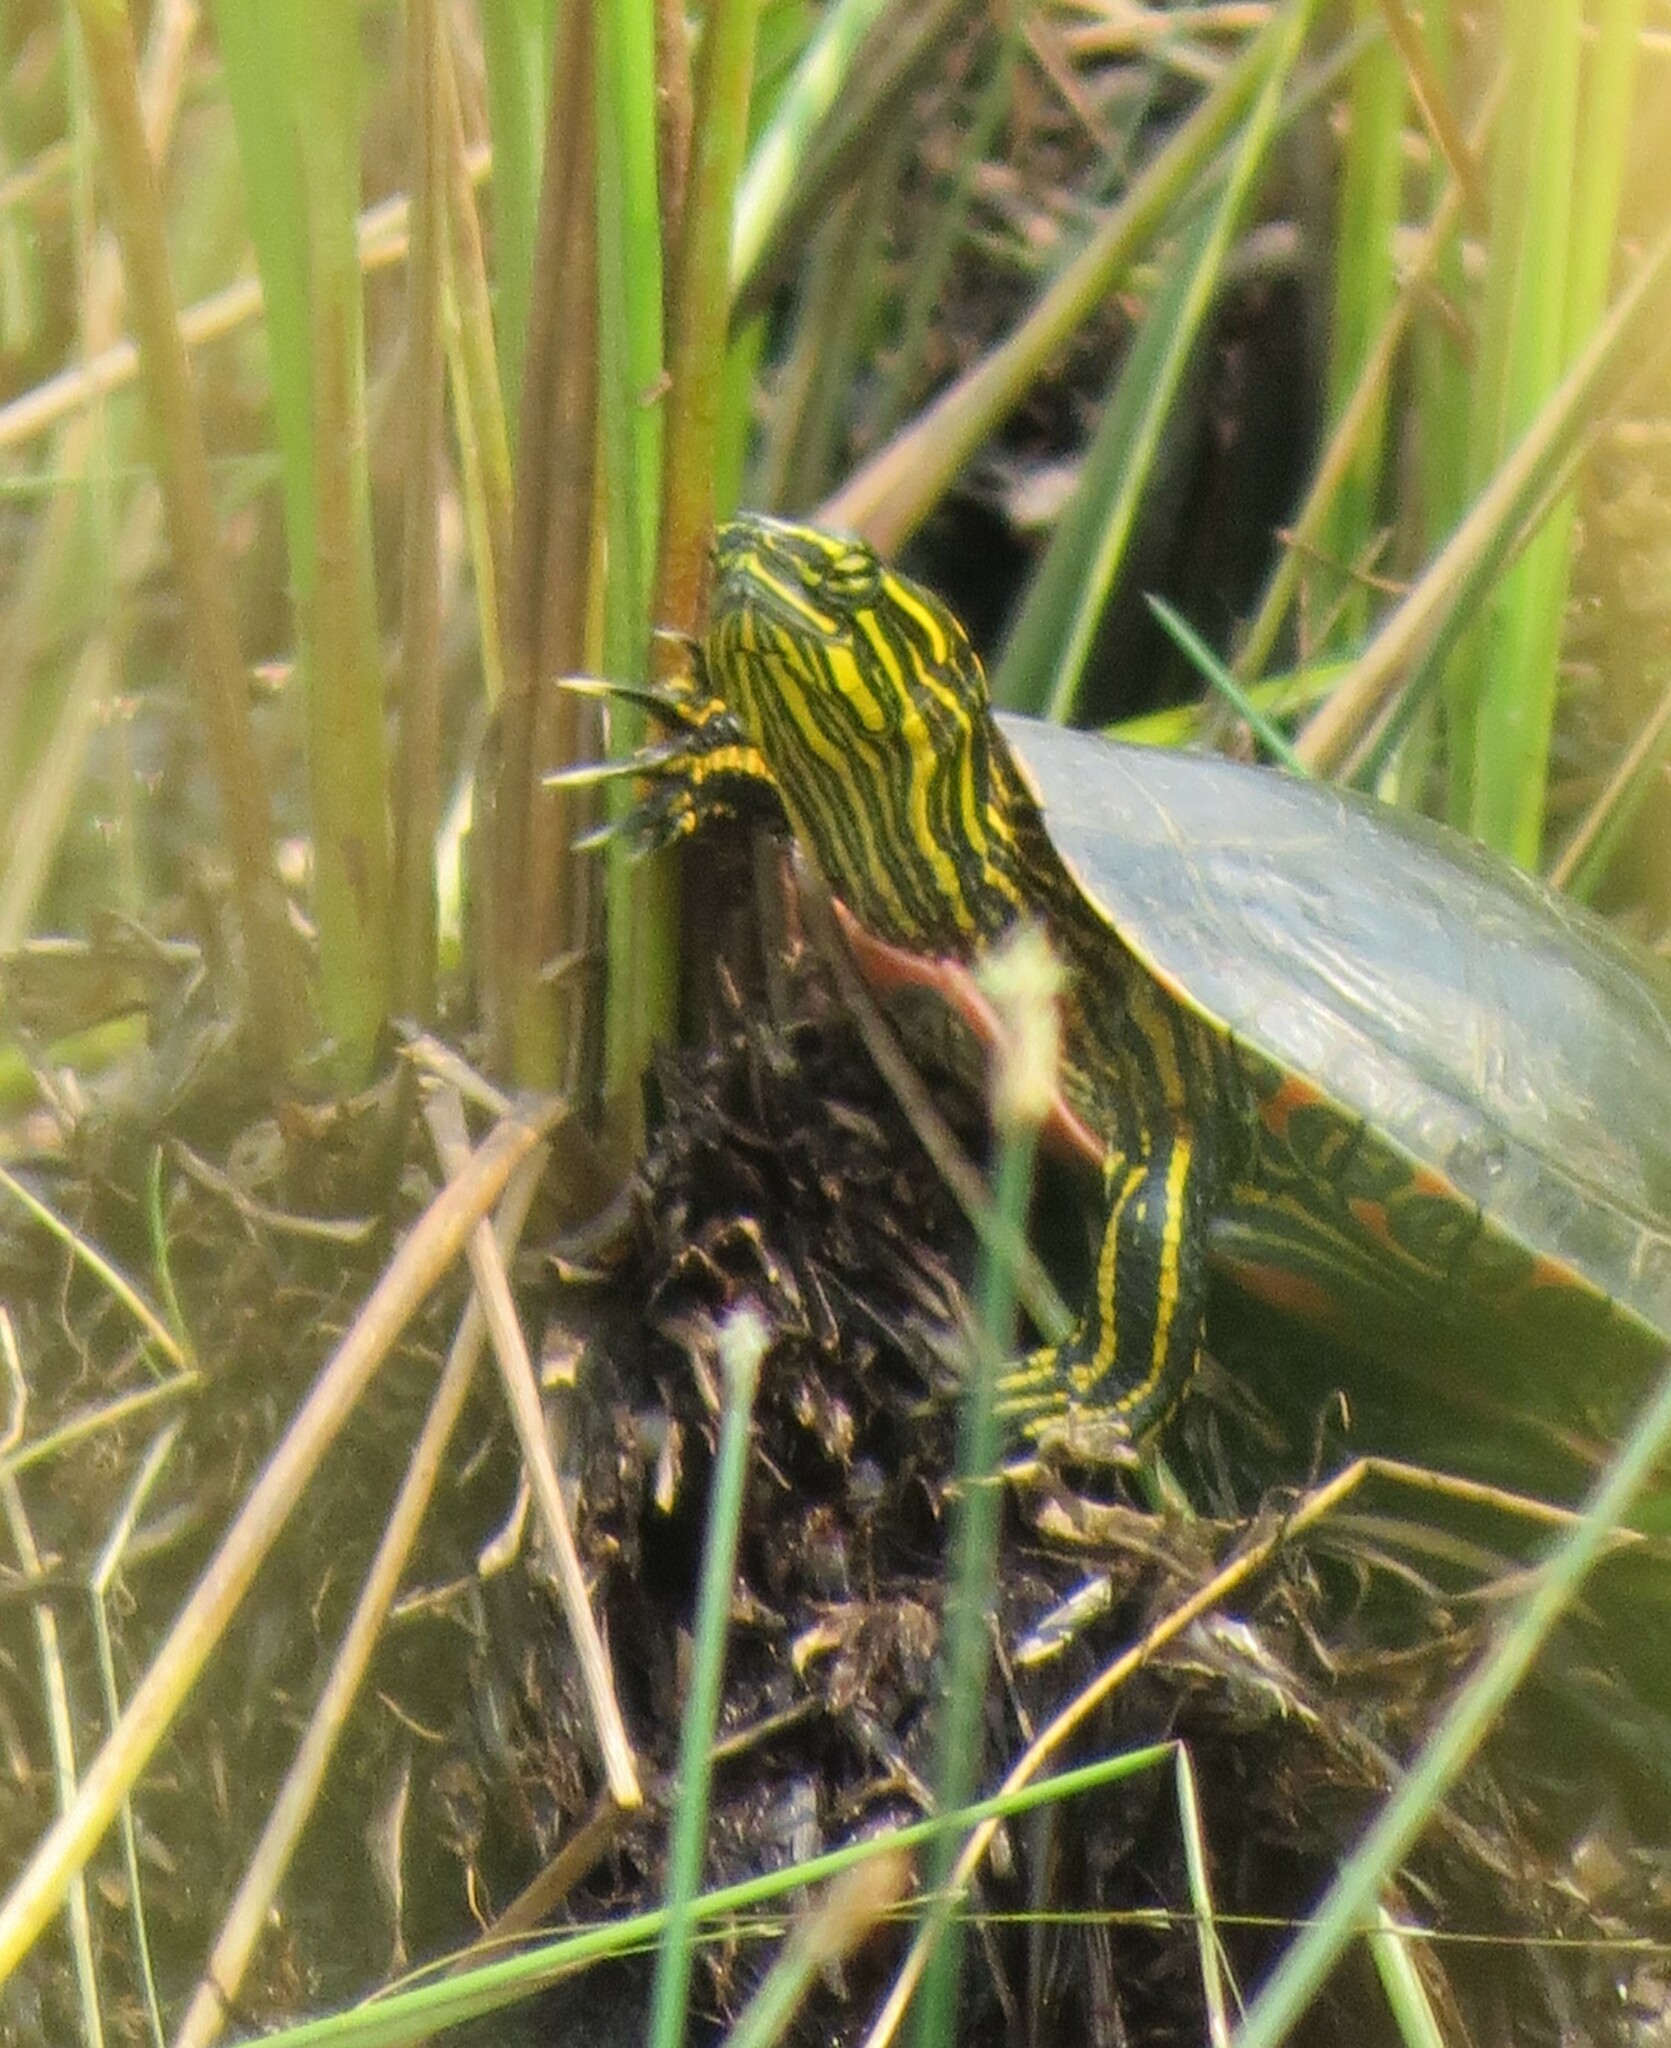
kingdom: Animalia
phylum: Chordata
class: Testudines
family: Emydidae
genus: Chrysemys
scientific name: Chrysemys picta
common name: Painted turtle
